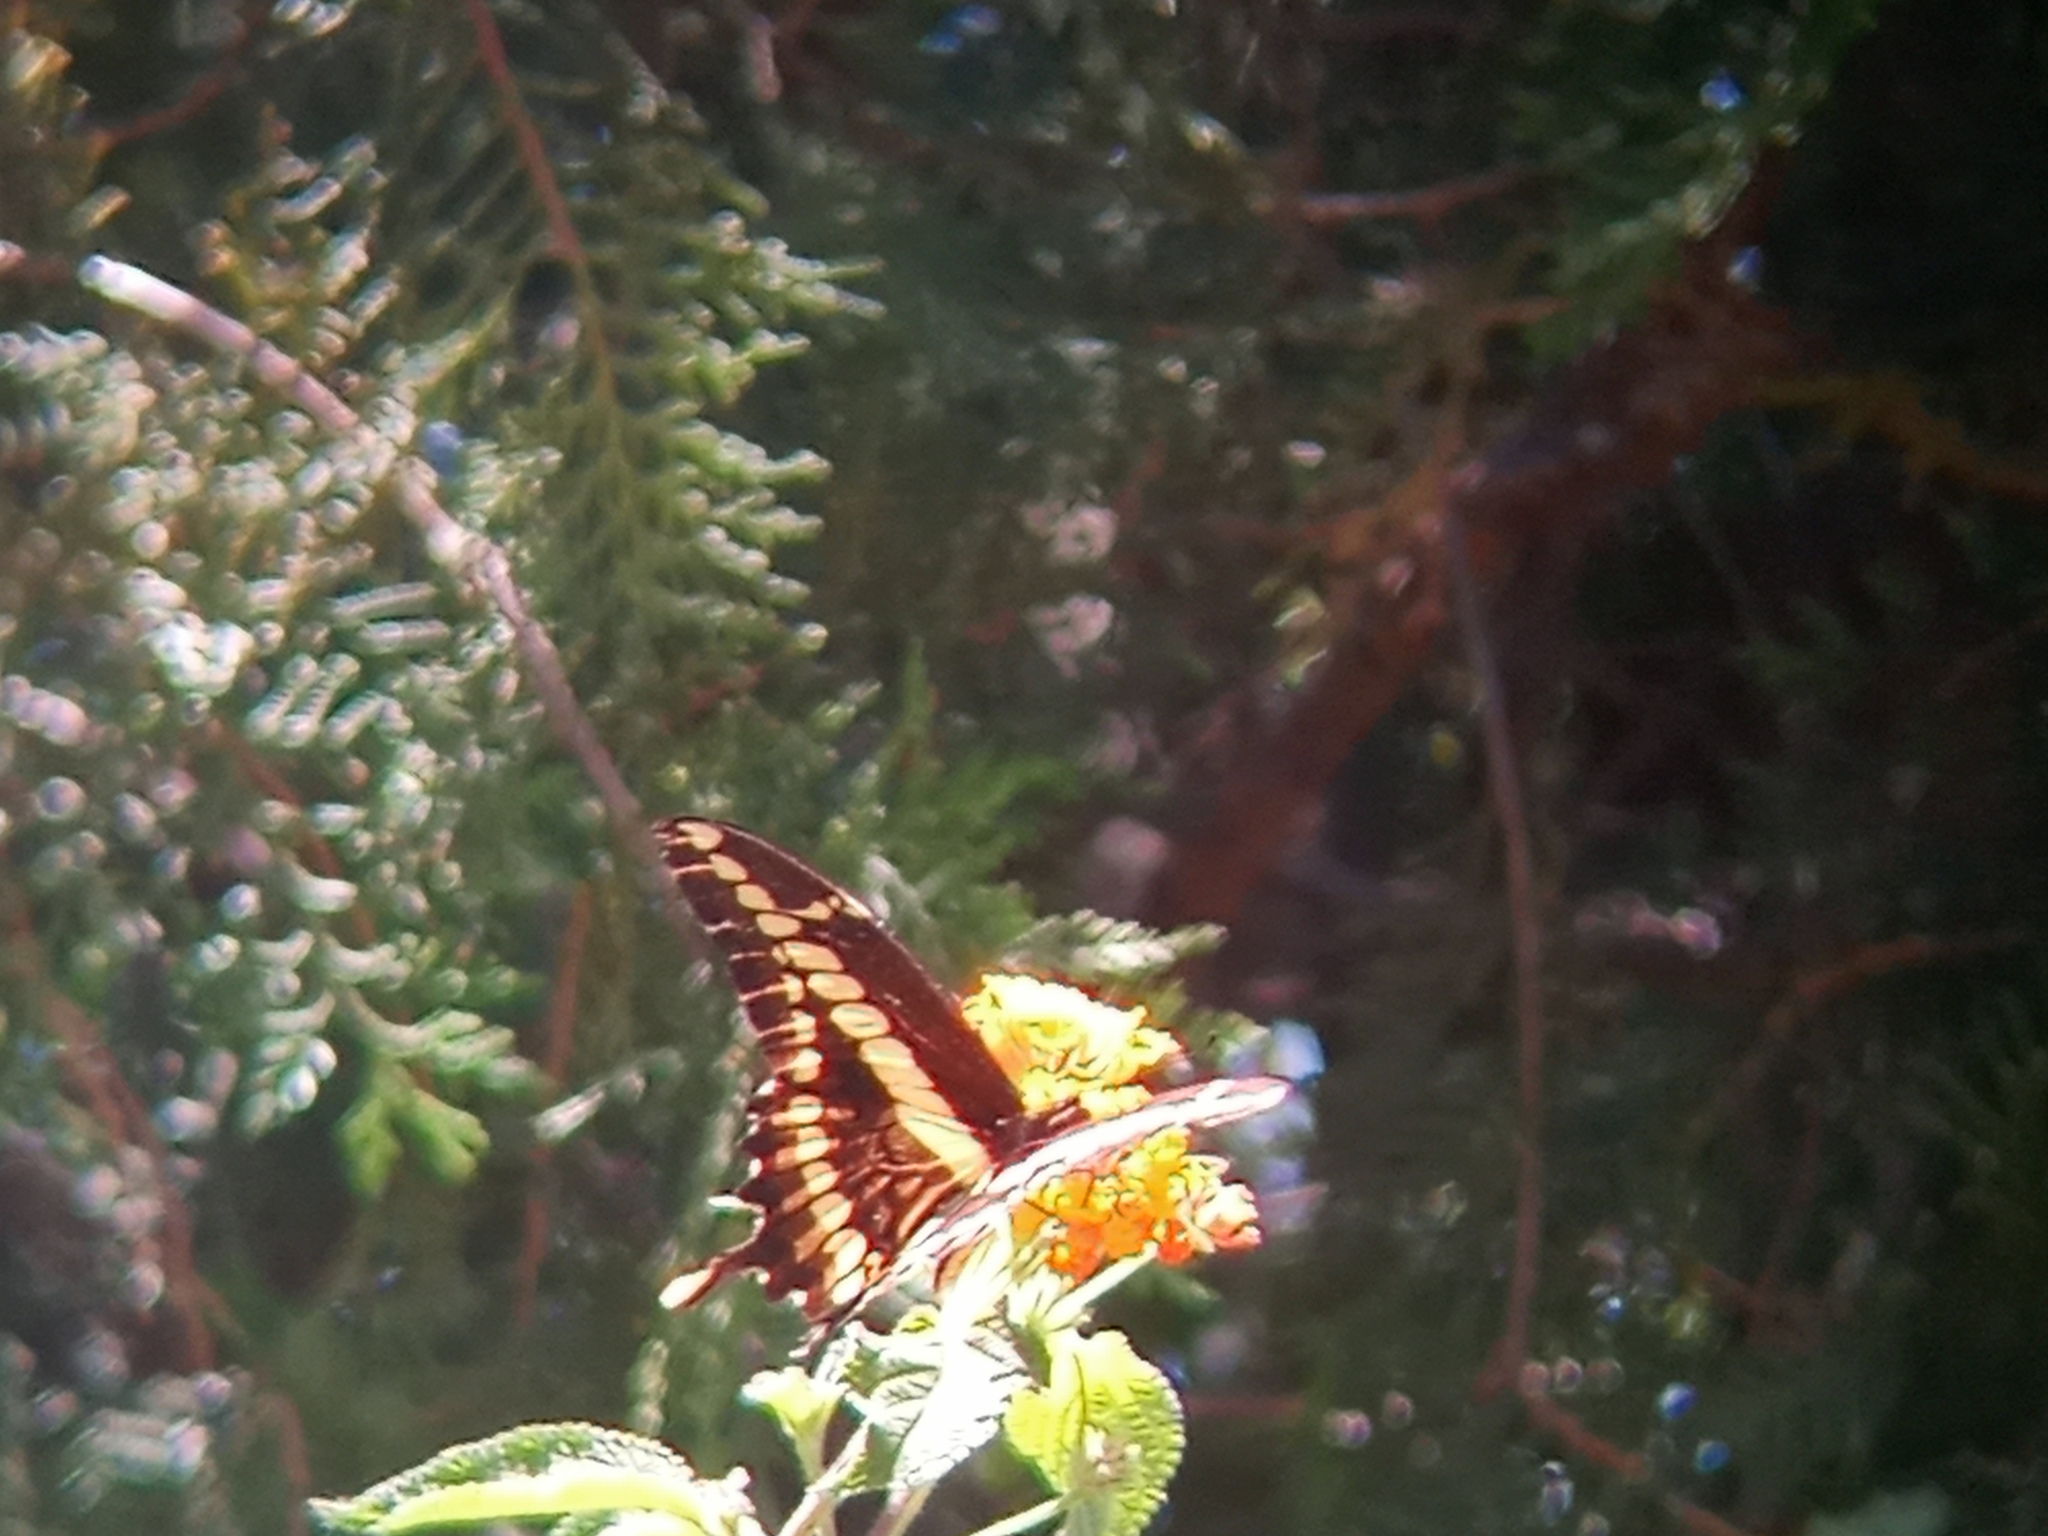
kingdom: Animalia
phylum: Arthropoda
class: Insecta
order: Lepidoptera
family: Papilionidae
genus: Papilio
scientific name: Papilio thoas
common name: King swallowtail
